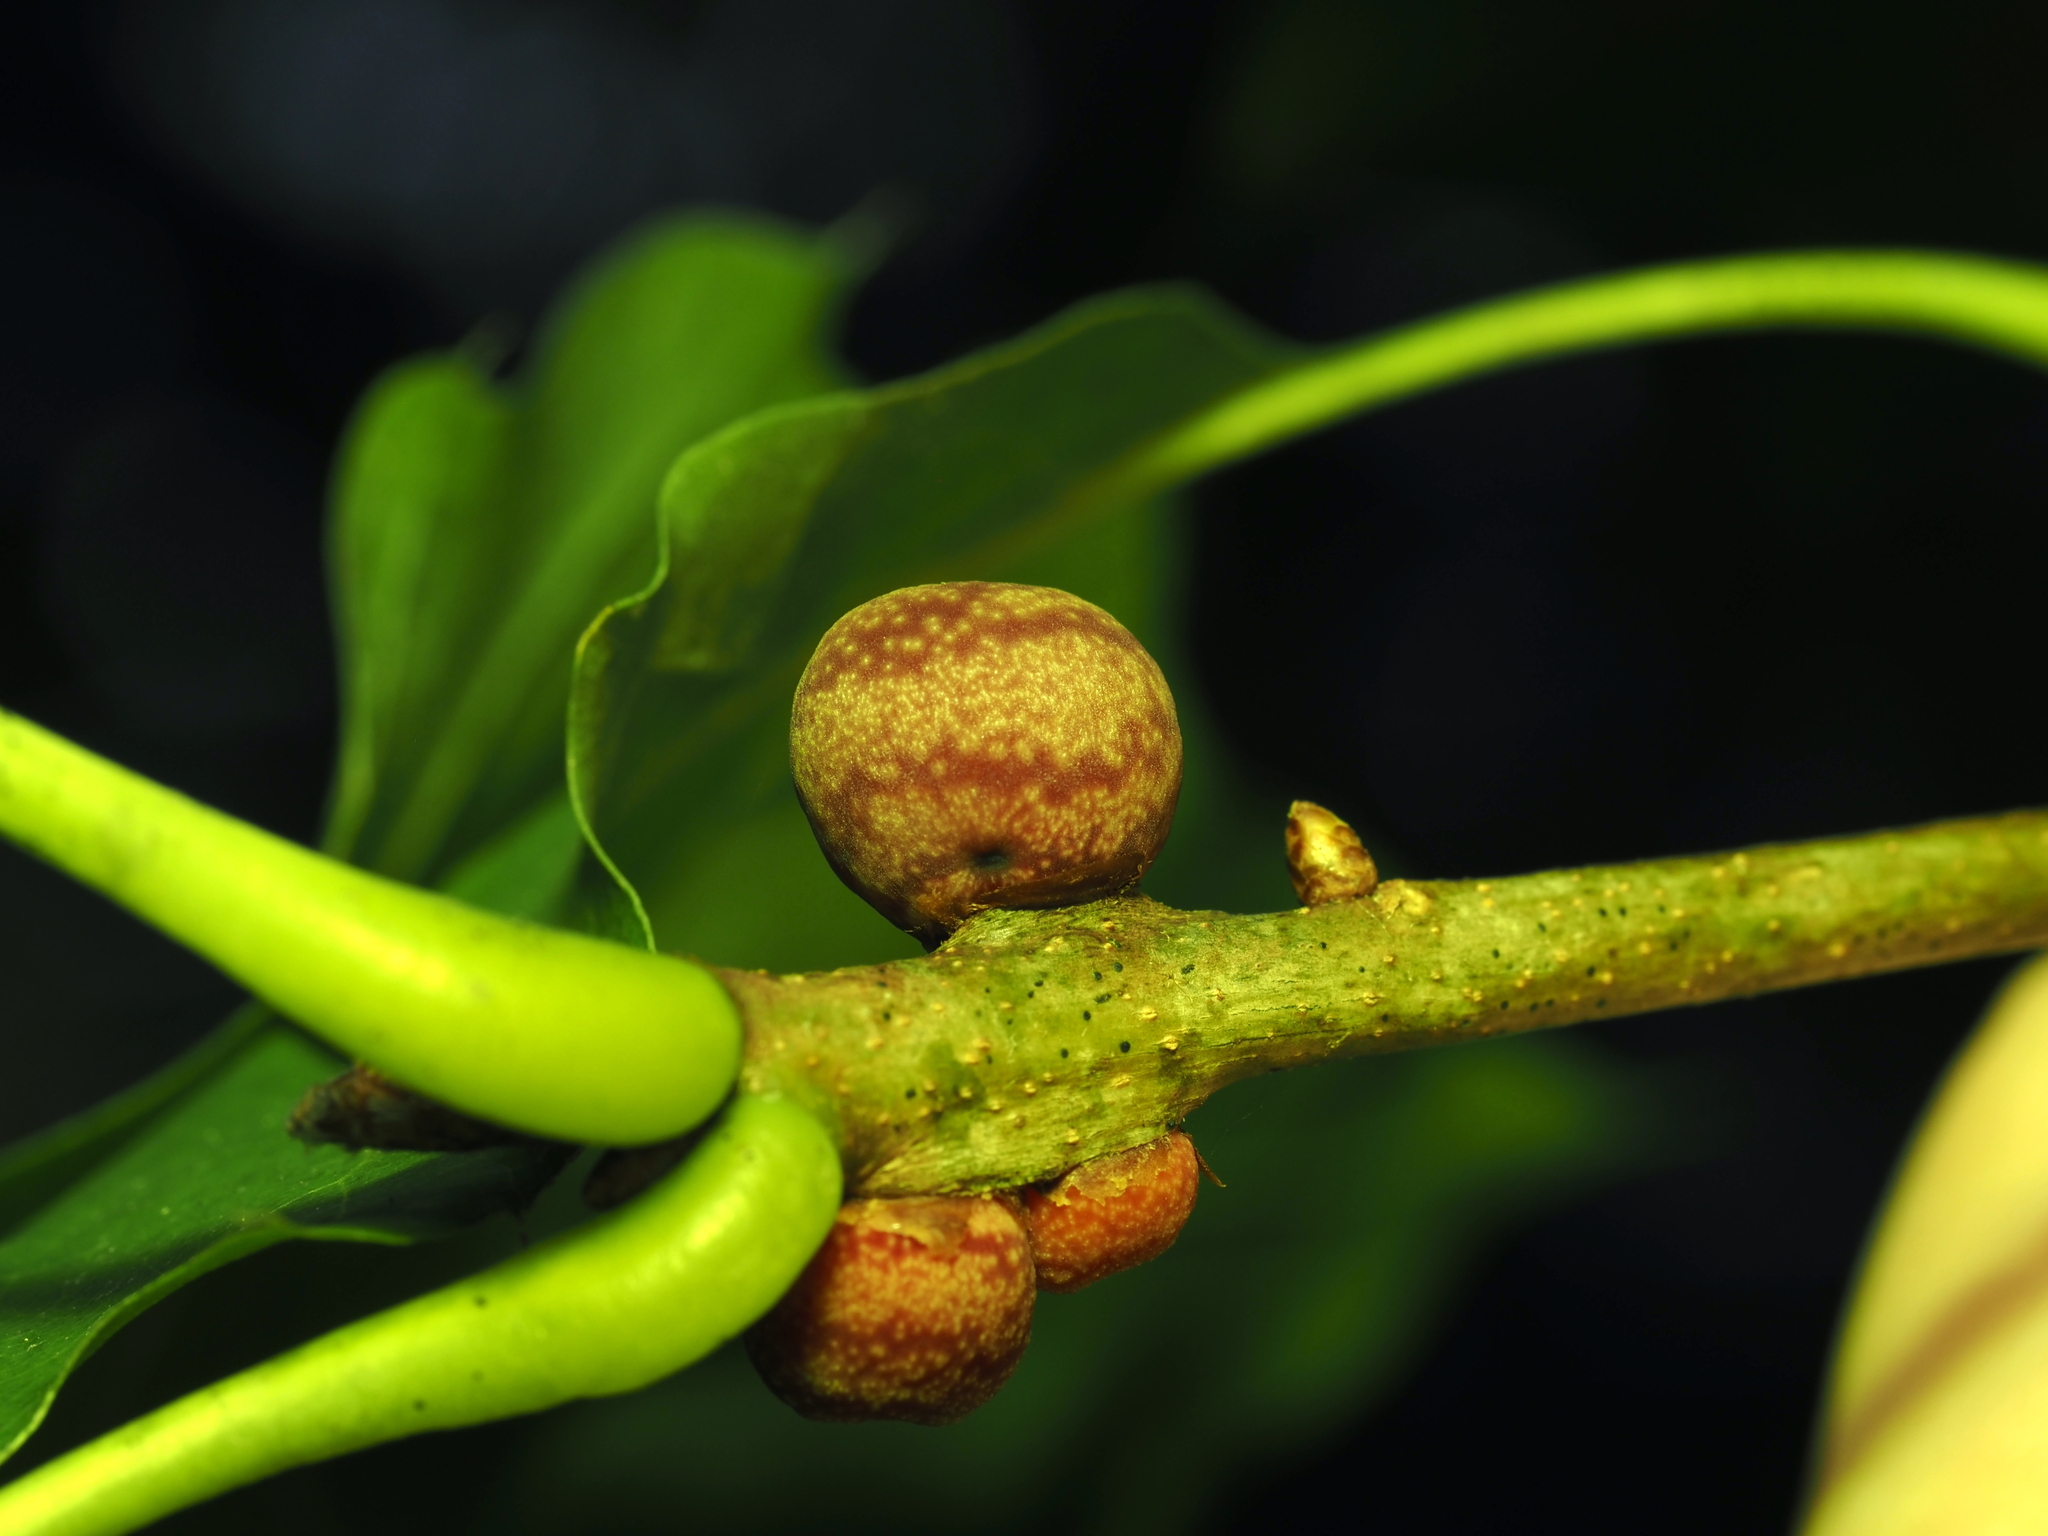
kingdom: Animalia
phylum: Arthropoda
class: Insecta
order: Hymenoptera
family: Cynipidae
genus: Kokkocynips
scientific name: Kokkocynips imbricariae
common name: Banded bullet gall wasp
